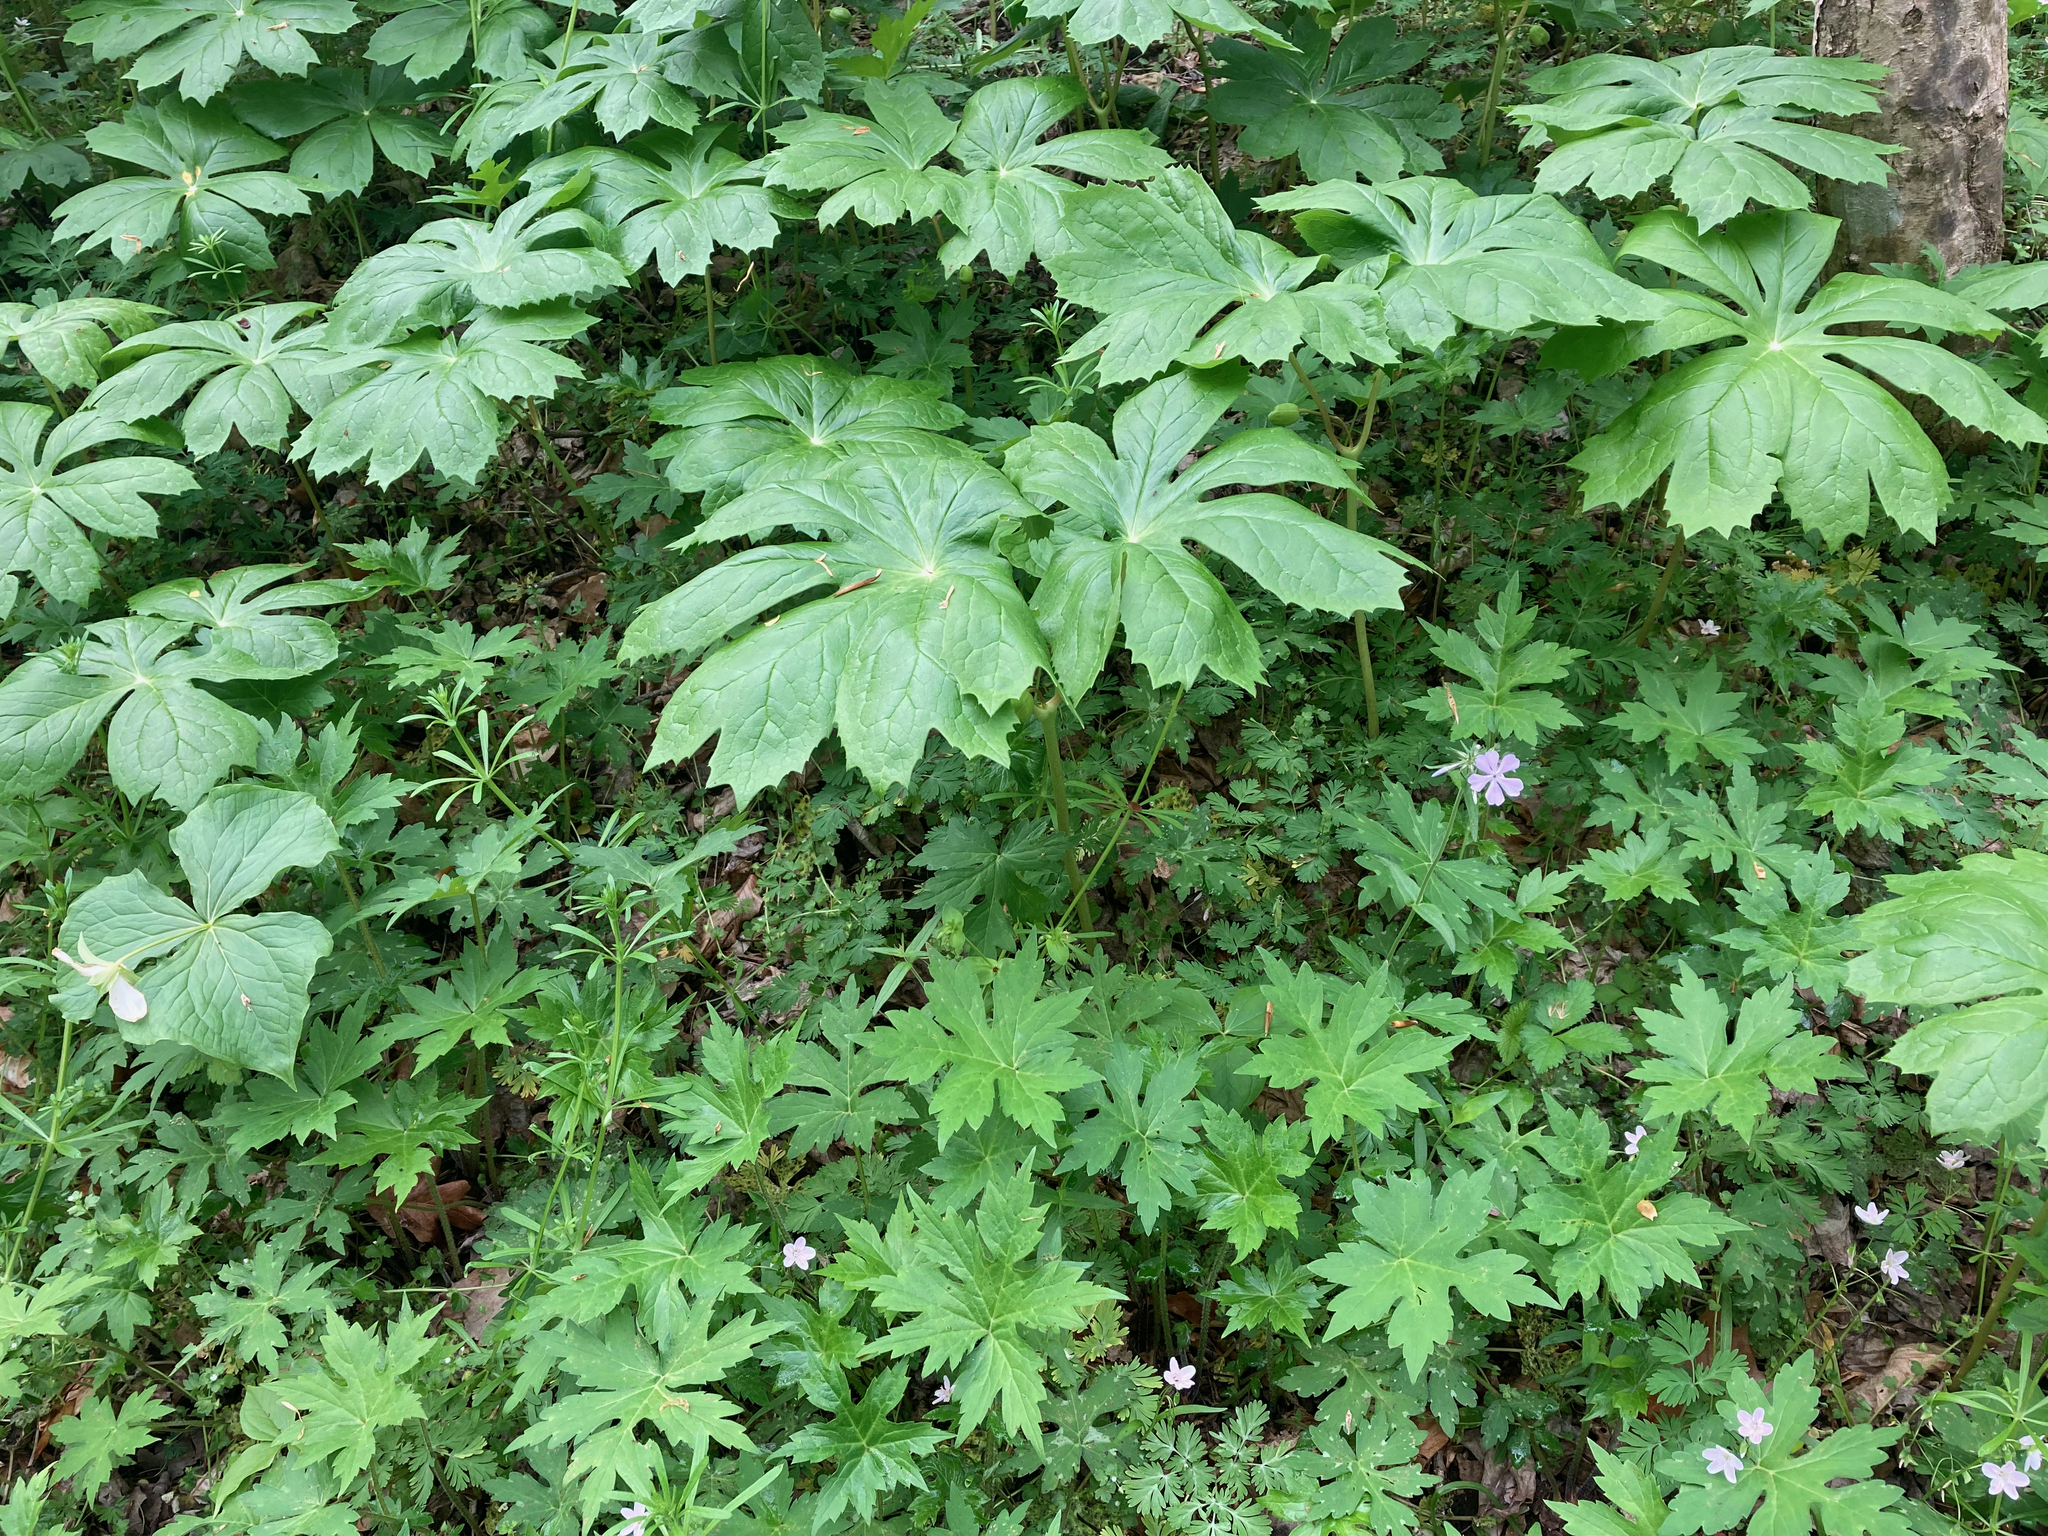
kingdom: Plantae
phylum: Tracheophyta
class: Magnoliopsida
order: Ranunculales
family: Berberidaceae
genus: Podophyllum
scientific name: Podophyllum peltatum
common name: Wild mandrake
